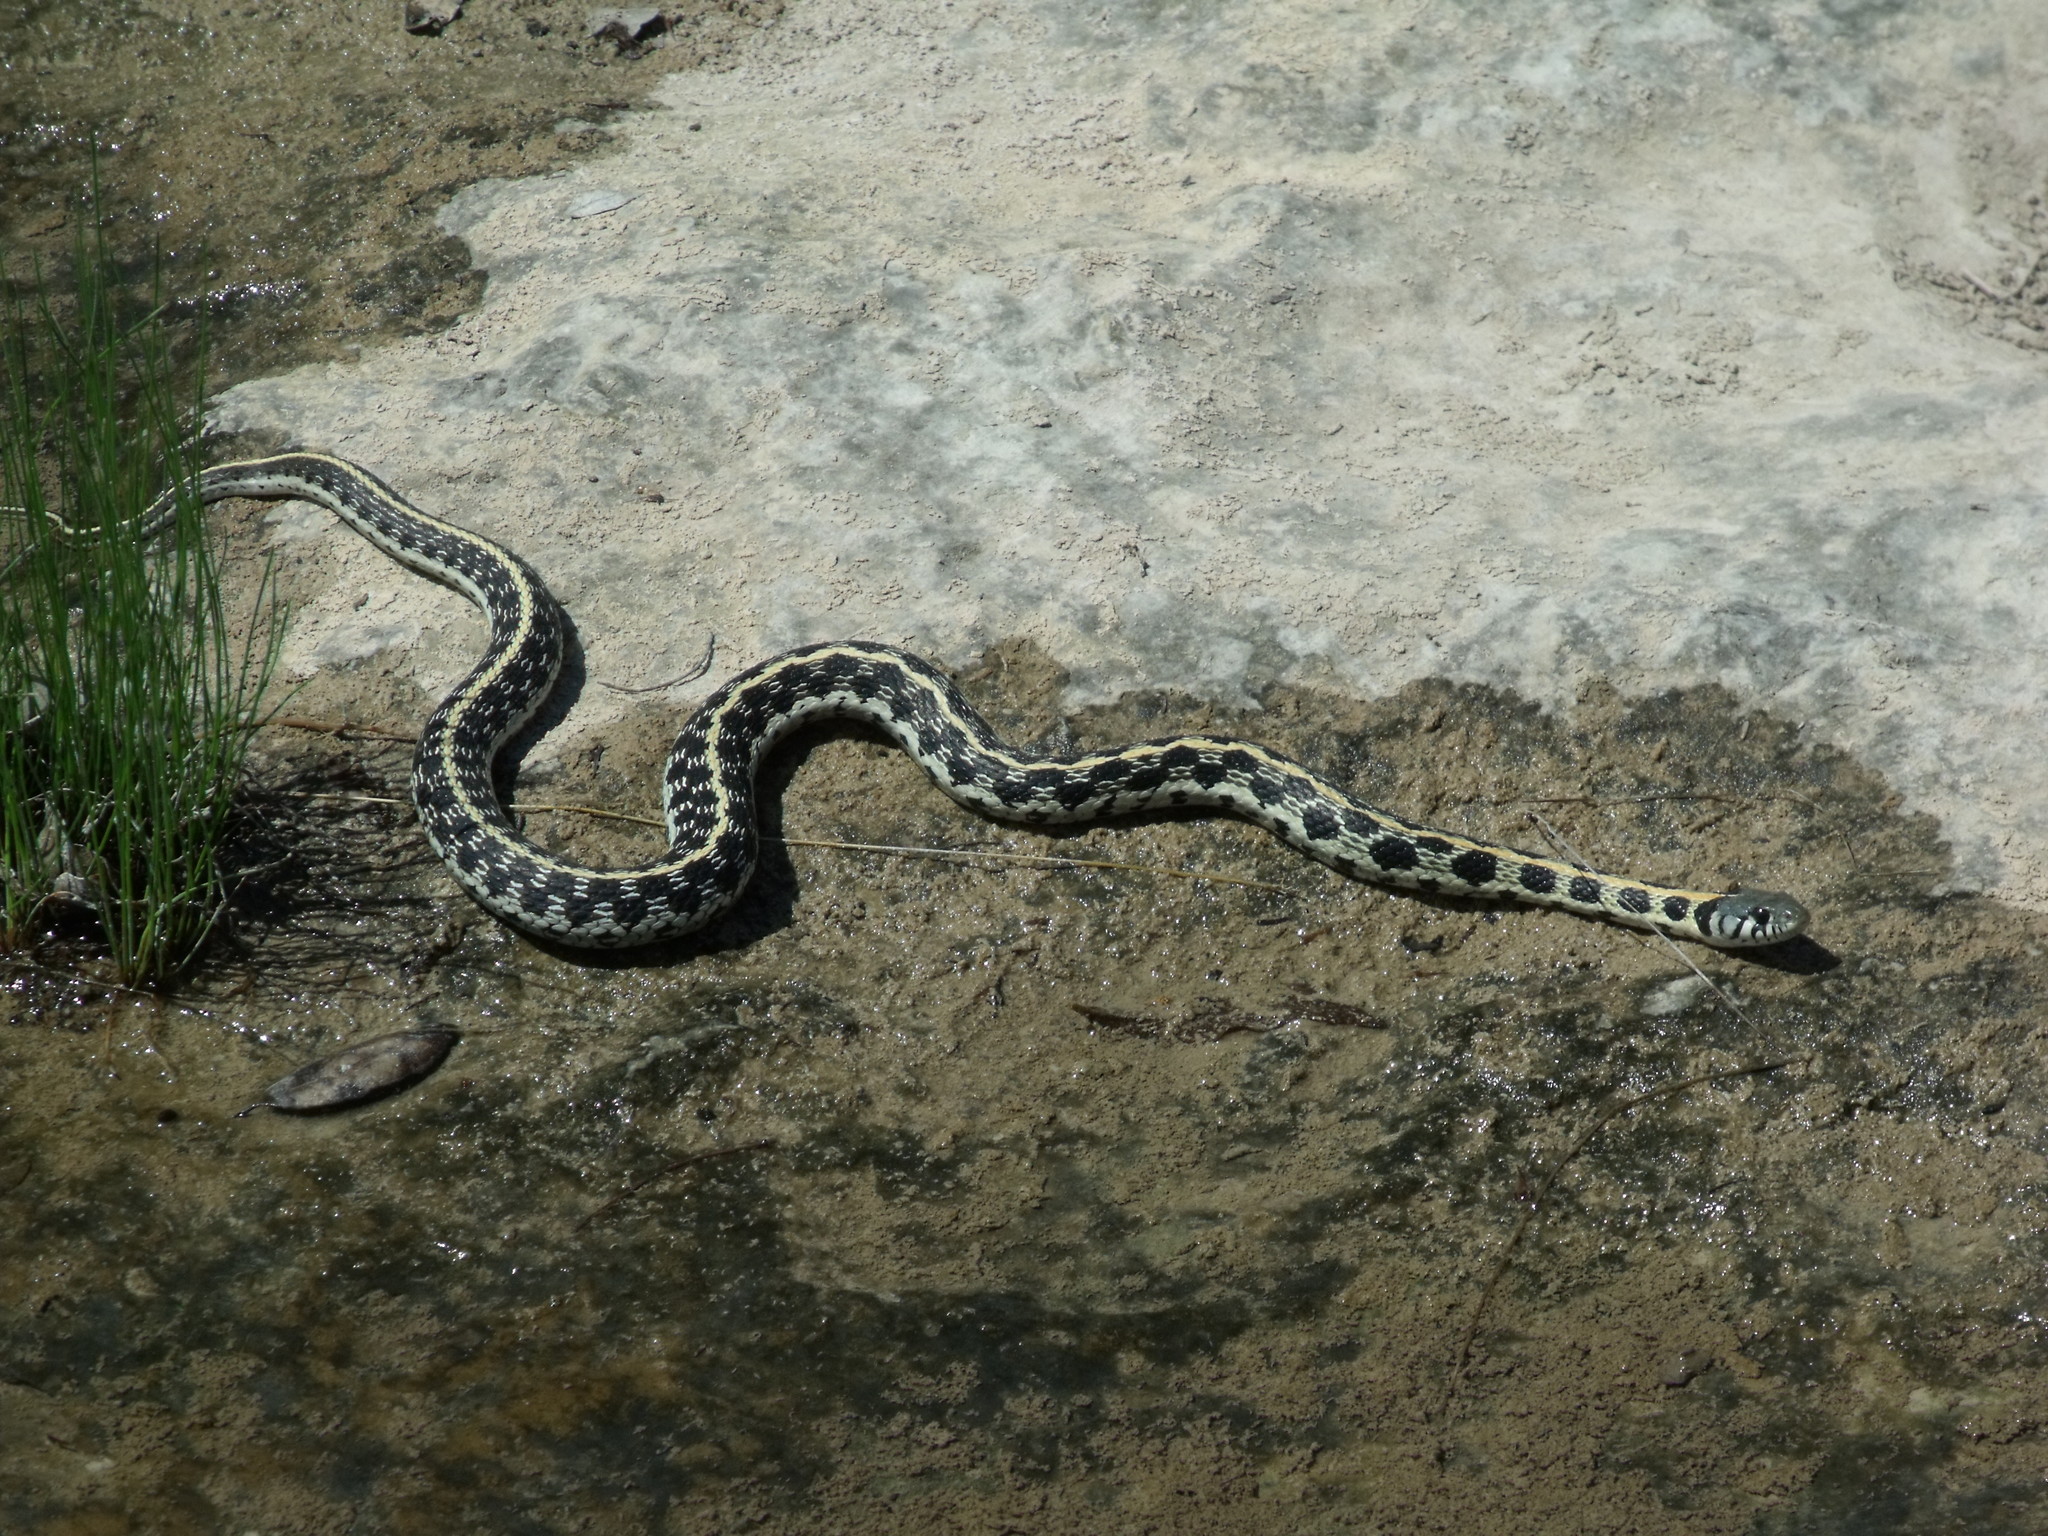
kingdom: Animalia
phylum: Chordata
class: Squamata
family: Colubridae
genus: Thamnophis
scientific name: Thamnophis cyrtopsis
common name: Black-necked gartersnake
